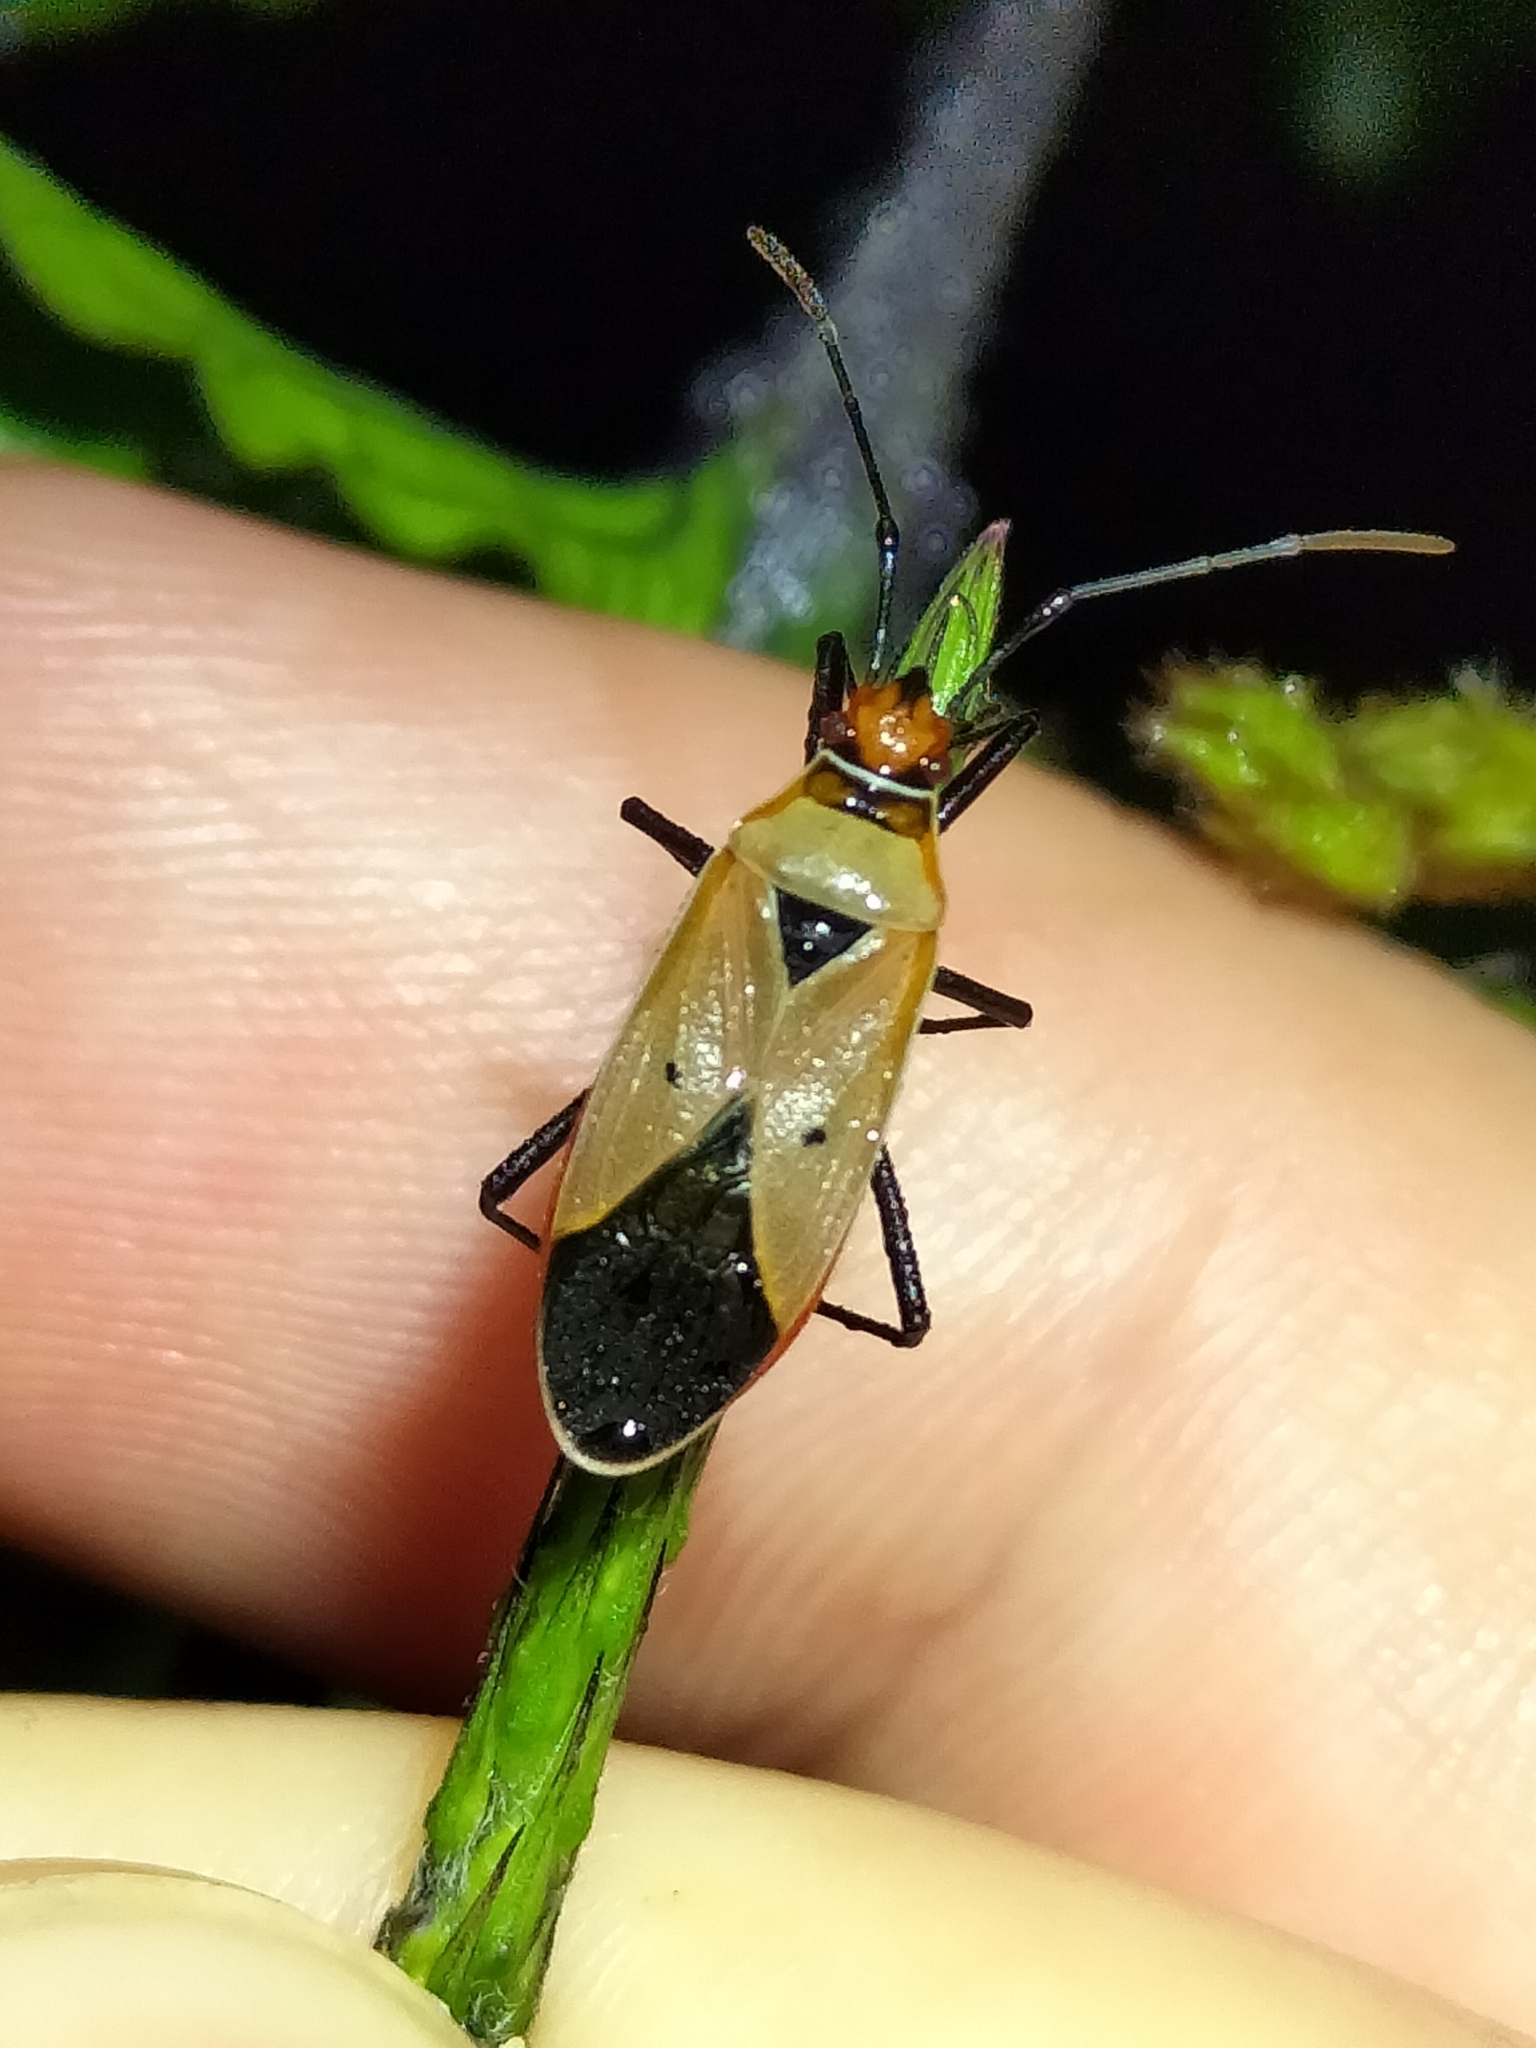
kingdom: Animalia
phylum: Arthropoda
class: Insecta
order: Hemiptera
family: Pyrrhocoridae
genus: Dysdercus
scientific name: Dysdercus sidae
